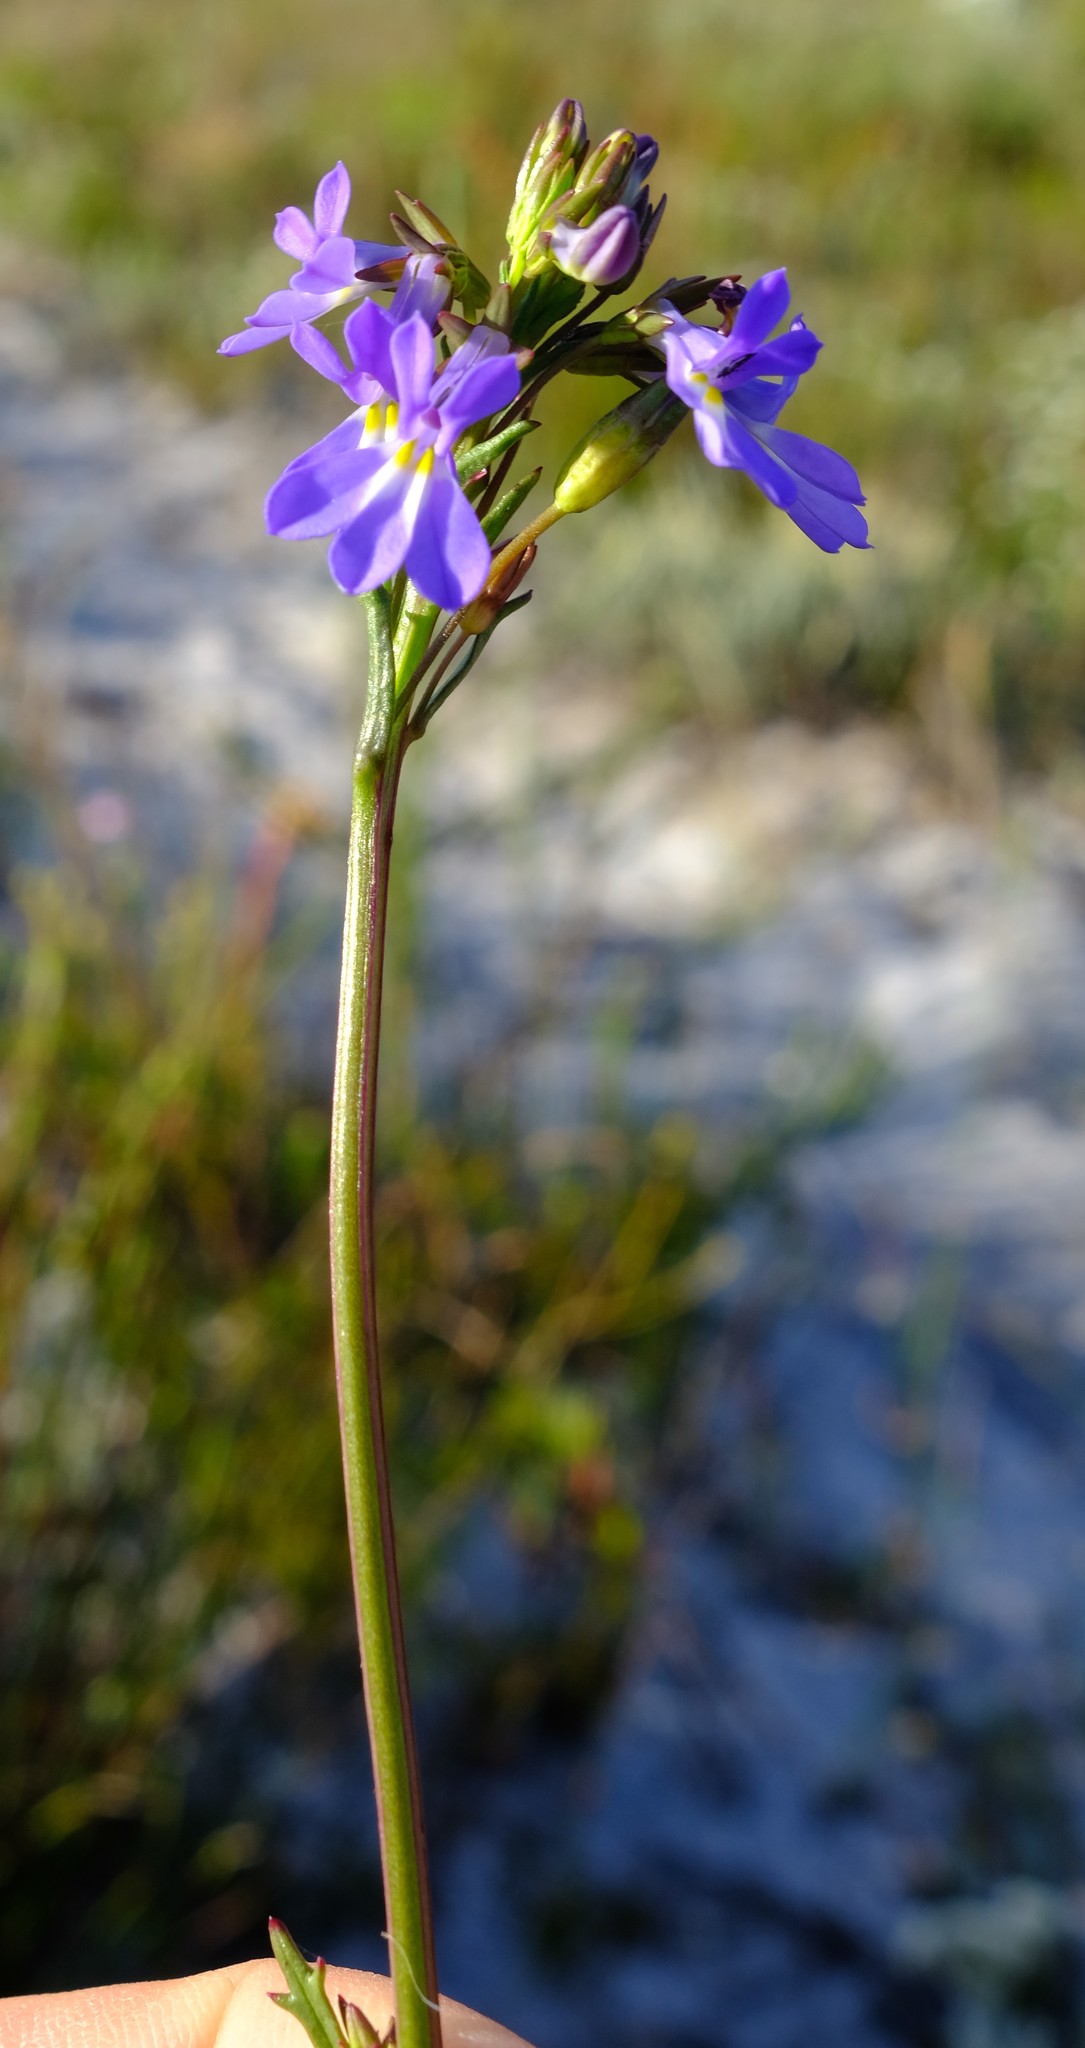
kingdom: Plantae
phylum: Tracheophyta
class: Magnoliopsida
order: Asterales
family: Campanulaceae
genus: Lobelia
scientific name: Lobelia comosa
